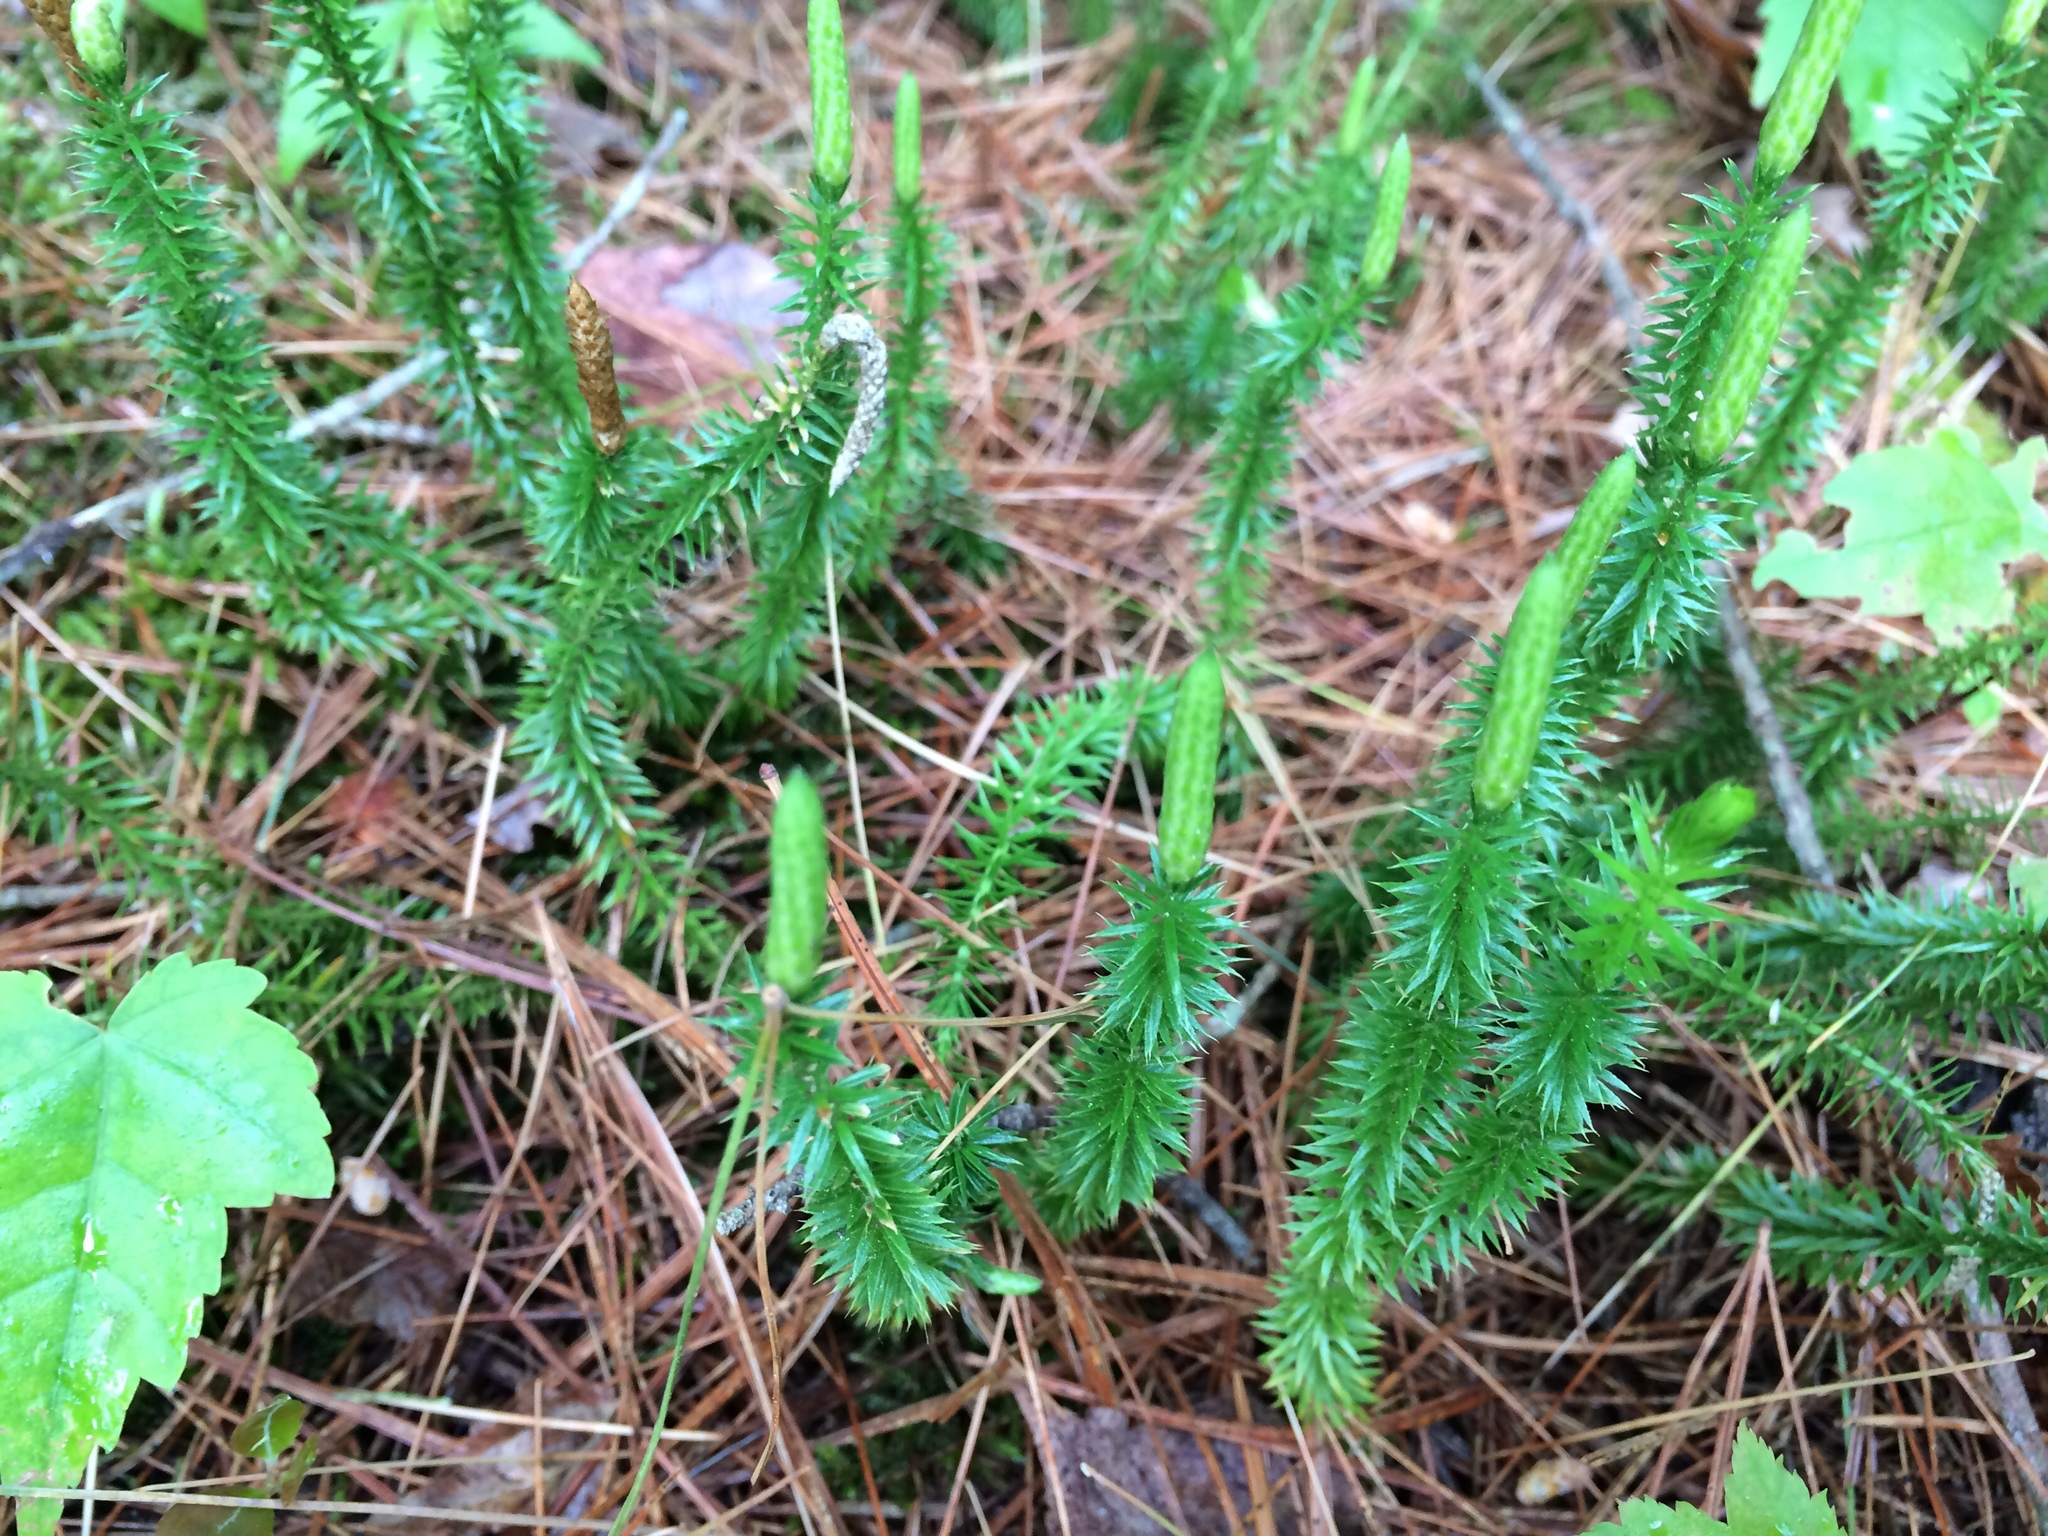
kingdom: Plantae
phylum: Tracheophyta
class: Lycopodiopsida
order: Lycopodiales
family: Lycopodiaceae
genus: Spinulum
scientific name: Spinulum annotinum
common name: Interrupted club-moss
